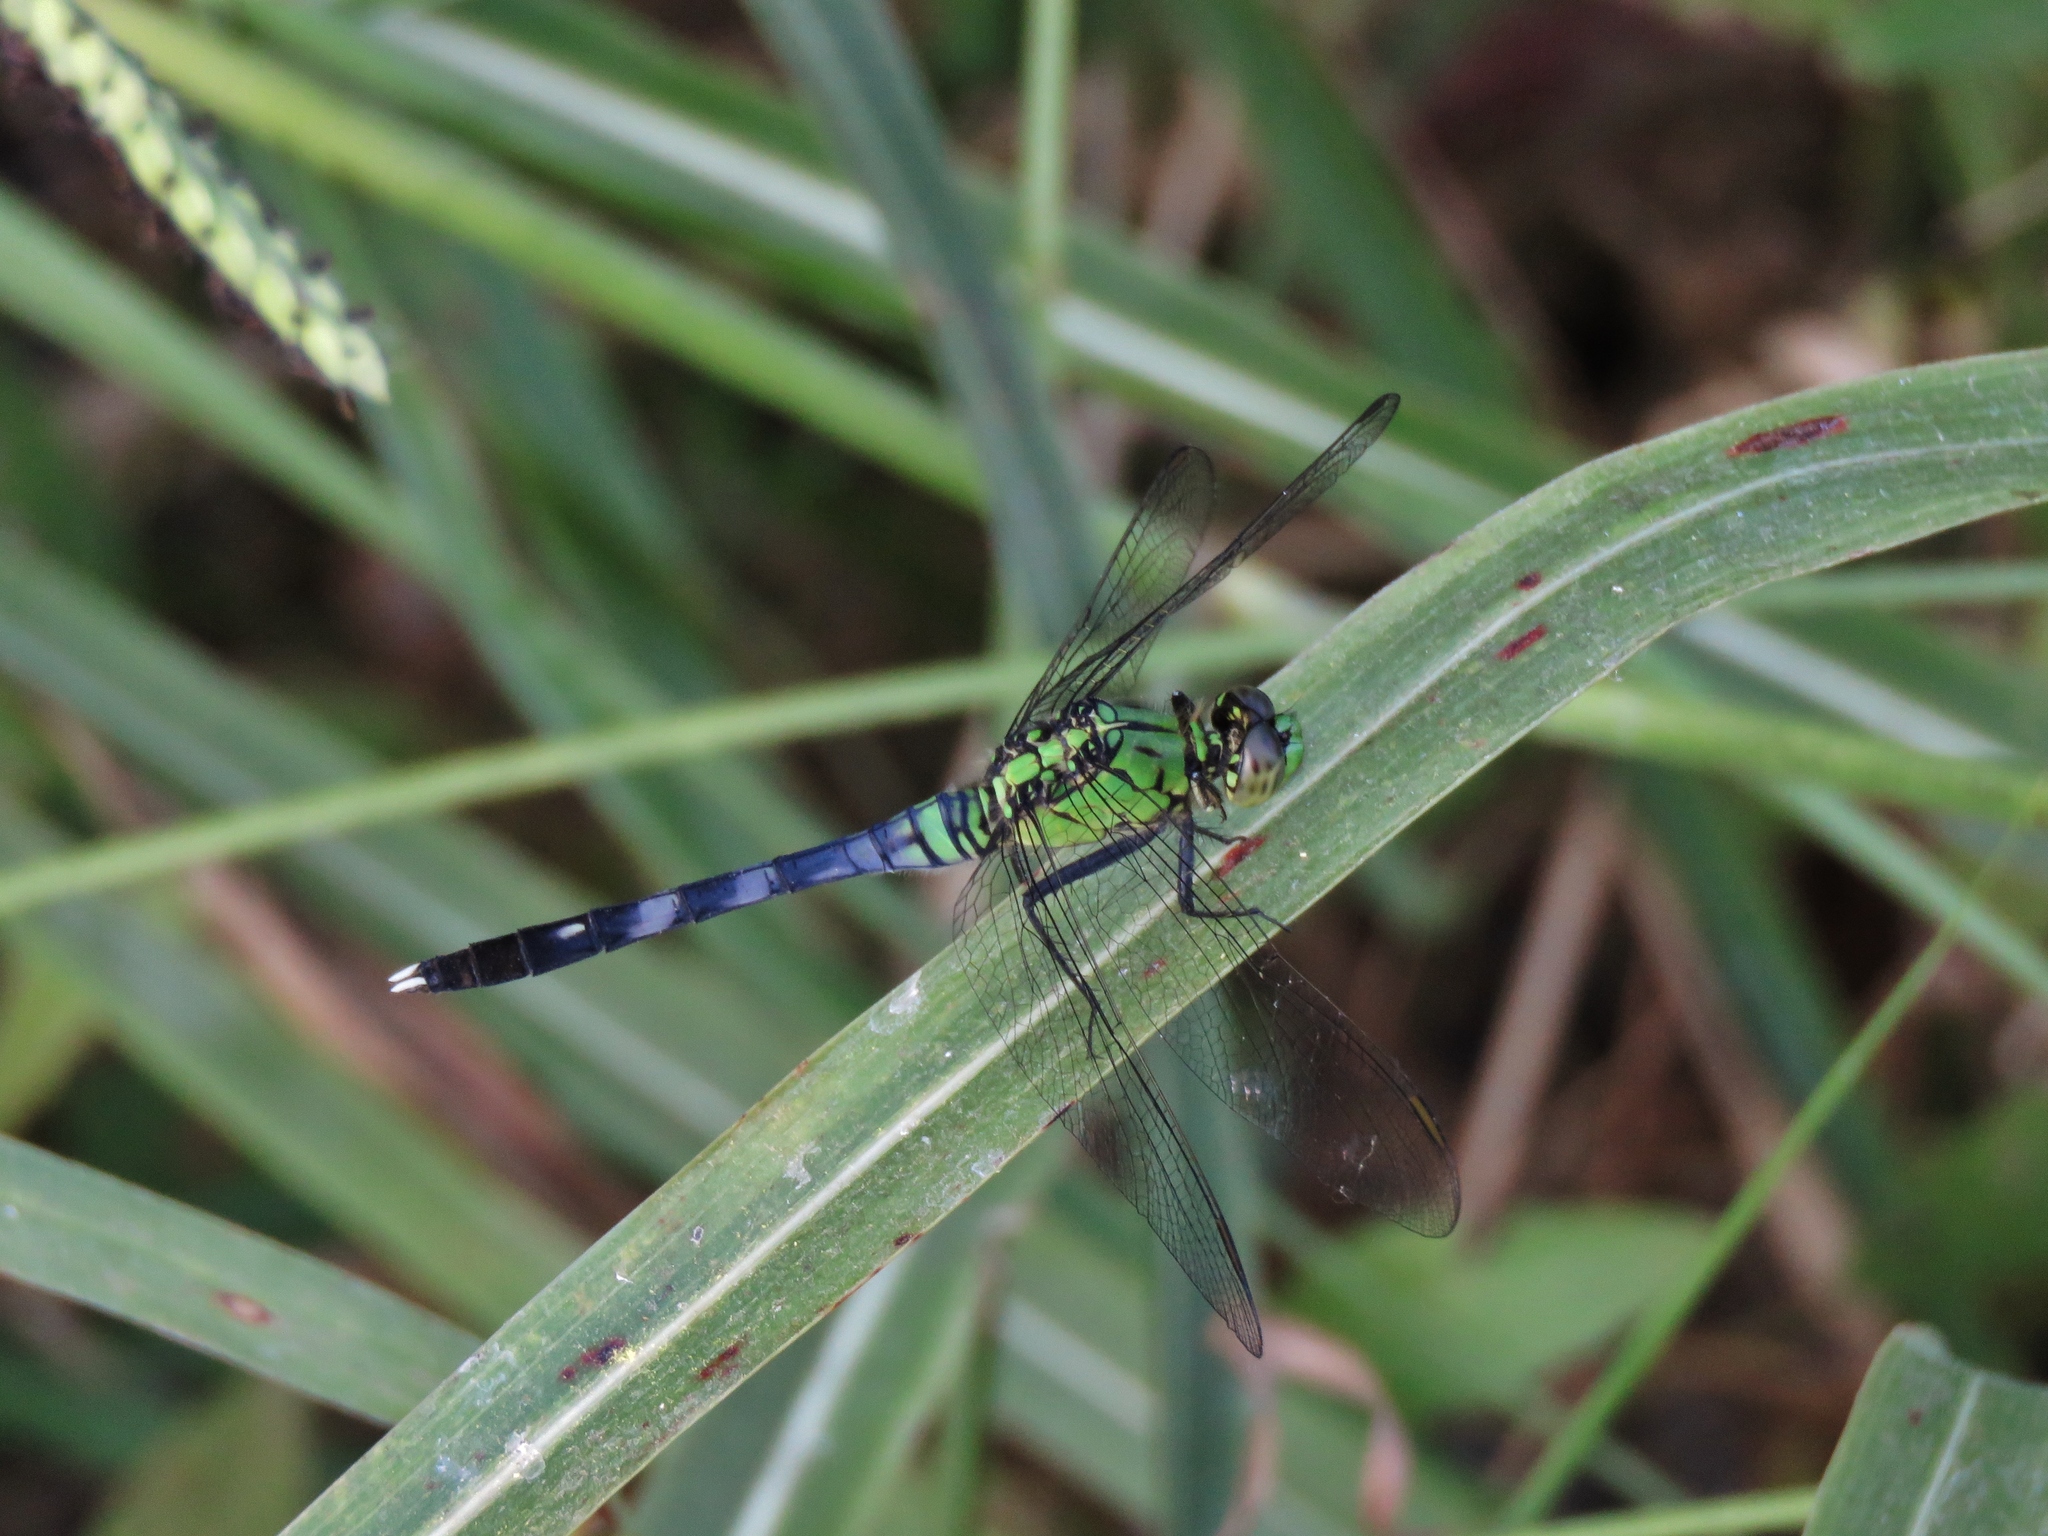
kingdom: Animalia
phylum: Arthropoda
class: Insecta
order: Odonata
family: Libellulidae
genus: Erythemis
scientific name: Erythemis simplicicollis
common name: Eastern pondhawk
